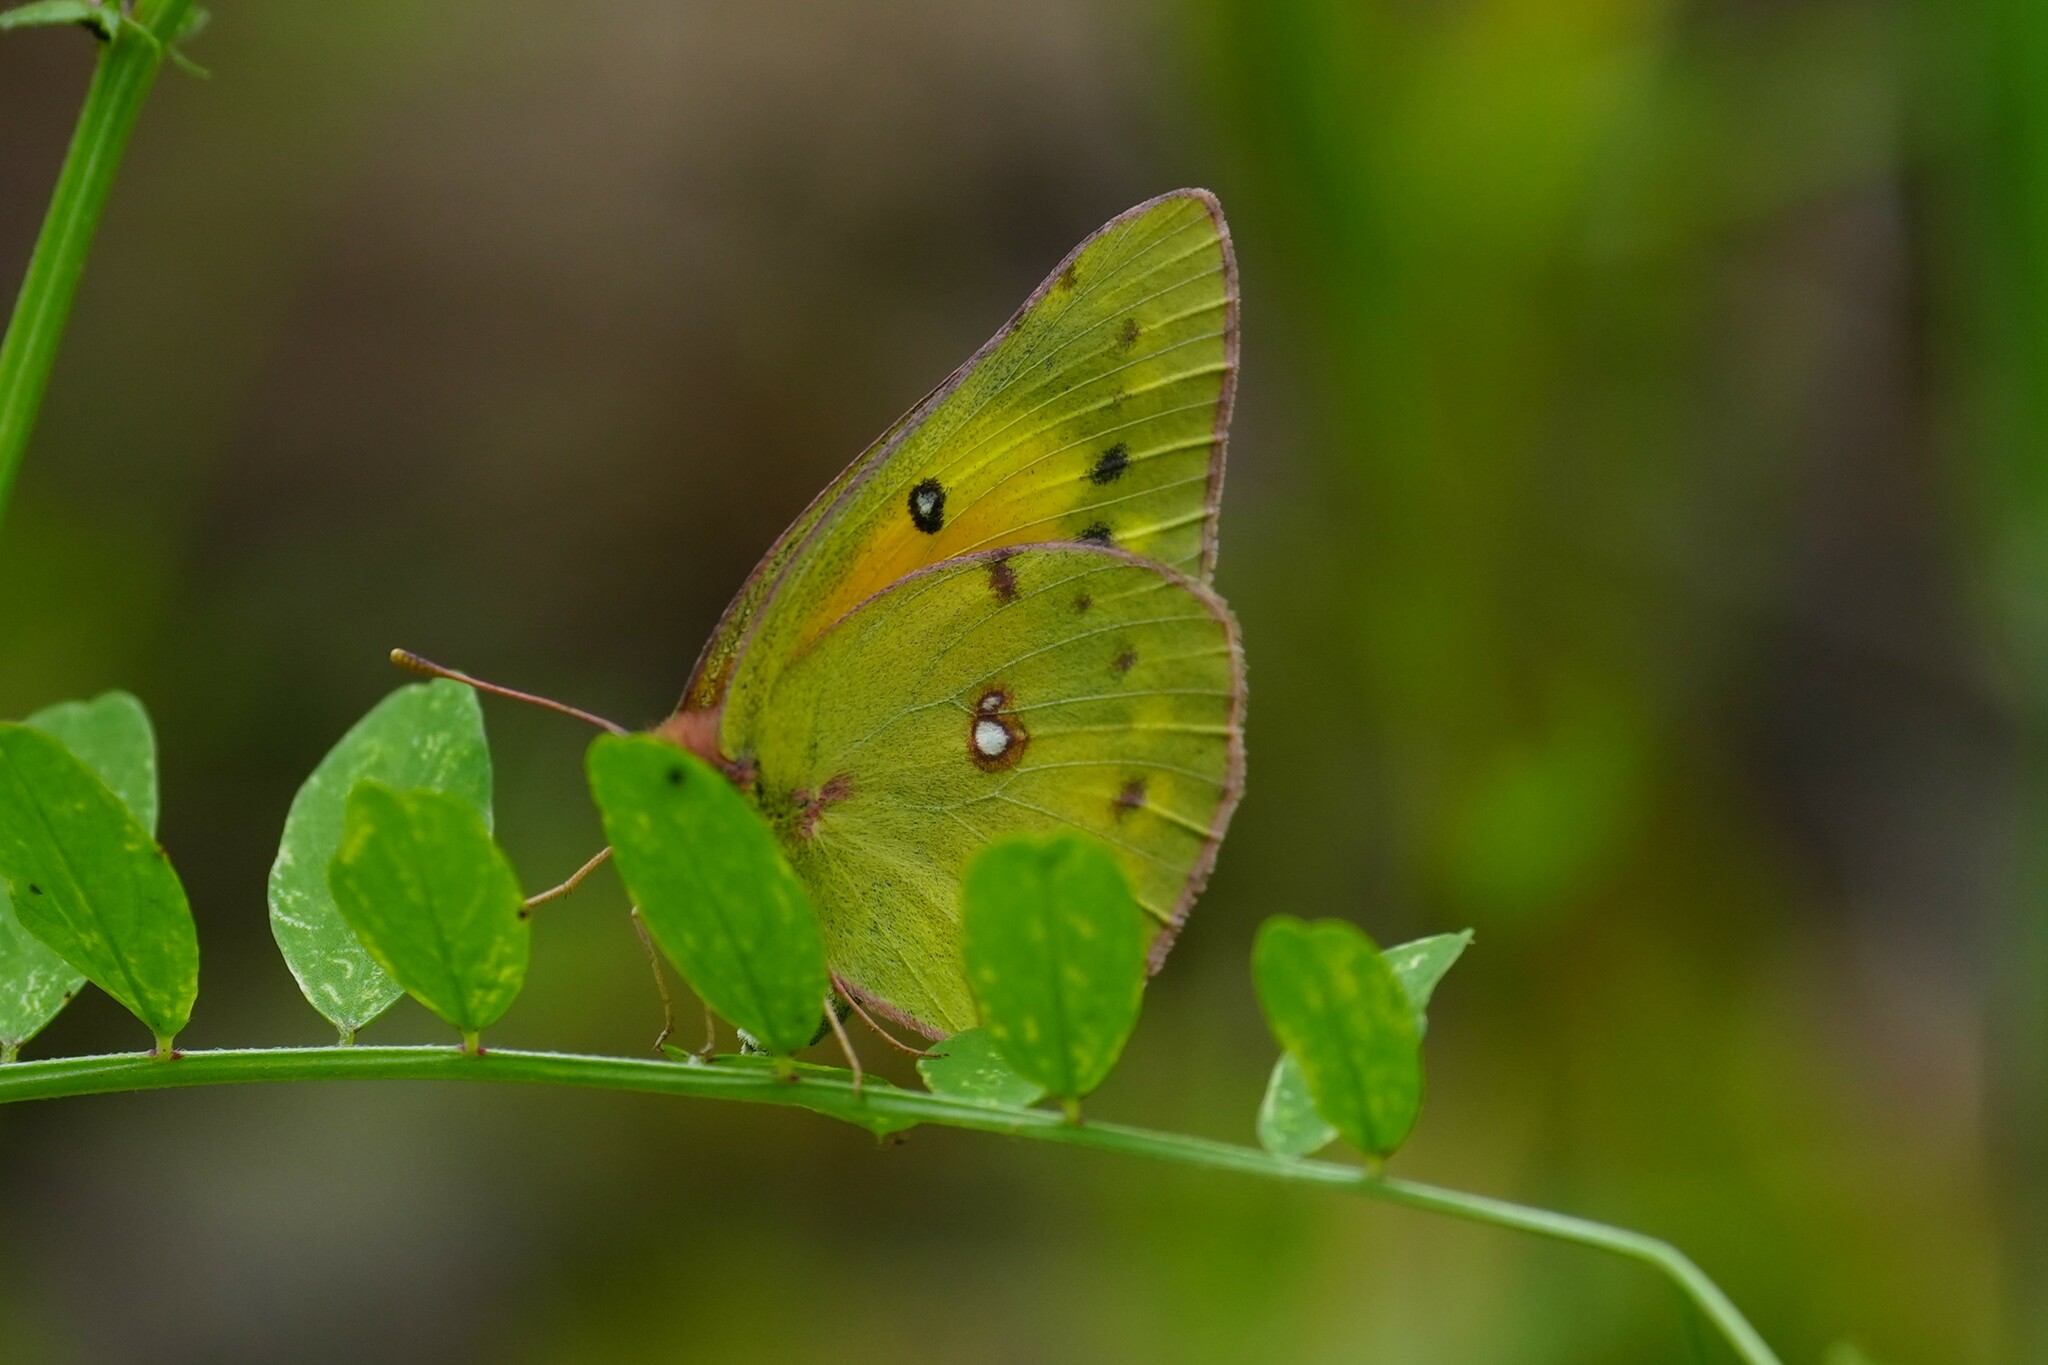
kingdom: Animalia
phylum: Arthropoda
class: Insecta
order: Lepidoptera
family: Pieridae
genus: Colias
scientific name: Colias eurytheme
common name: Alfalfa butterfly
